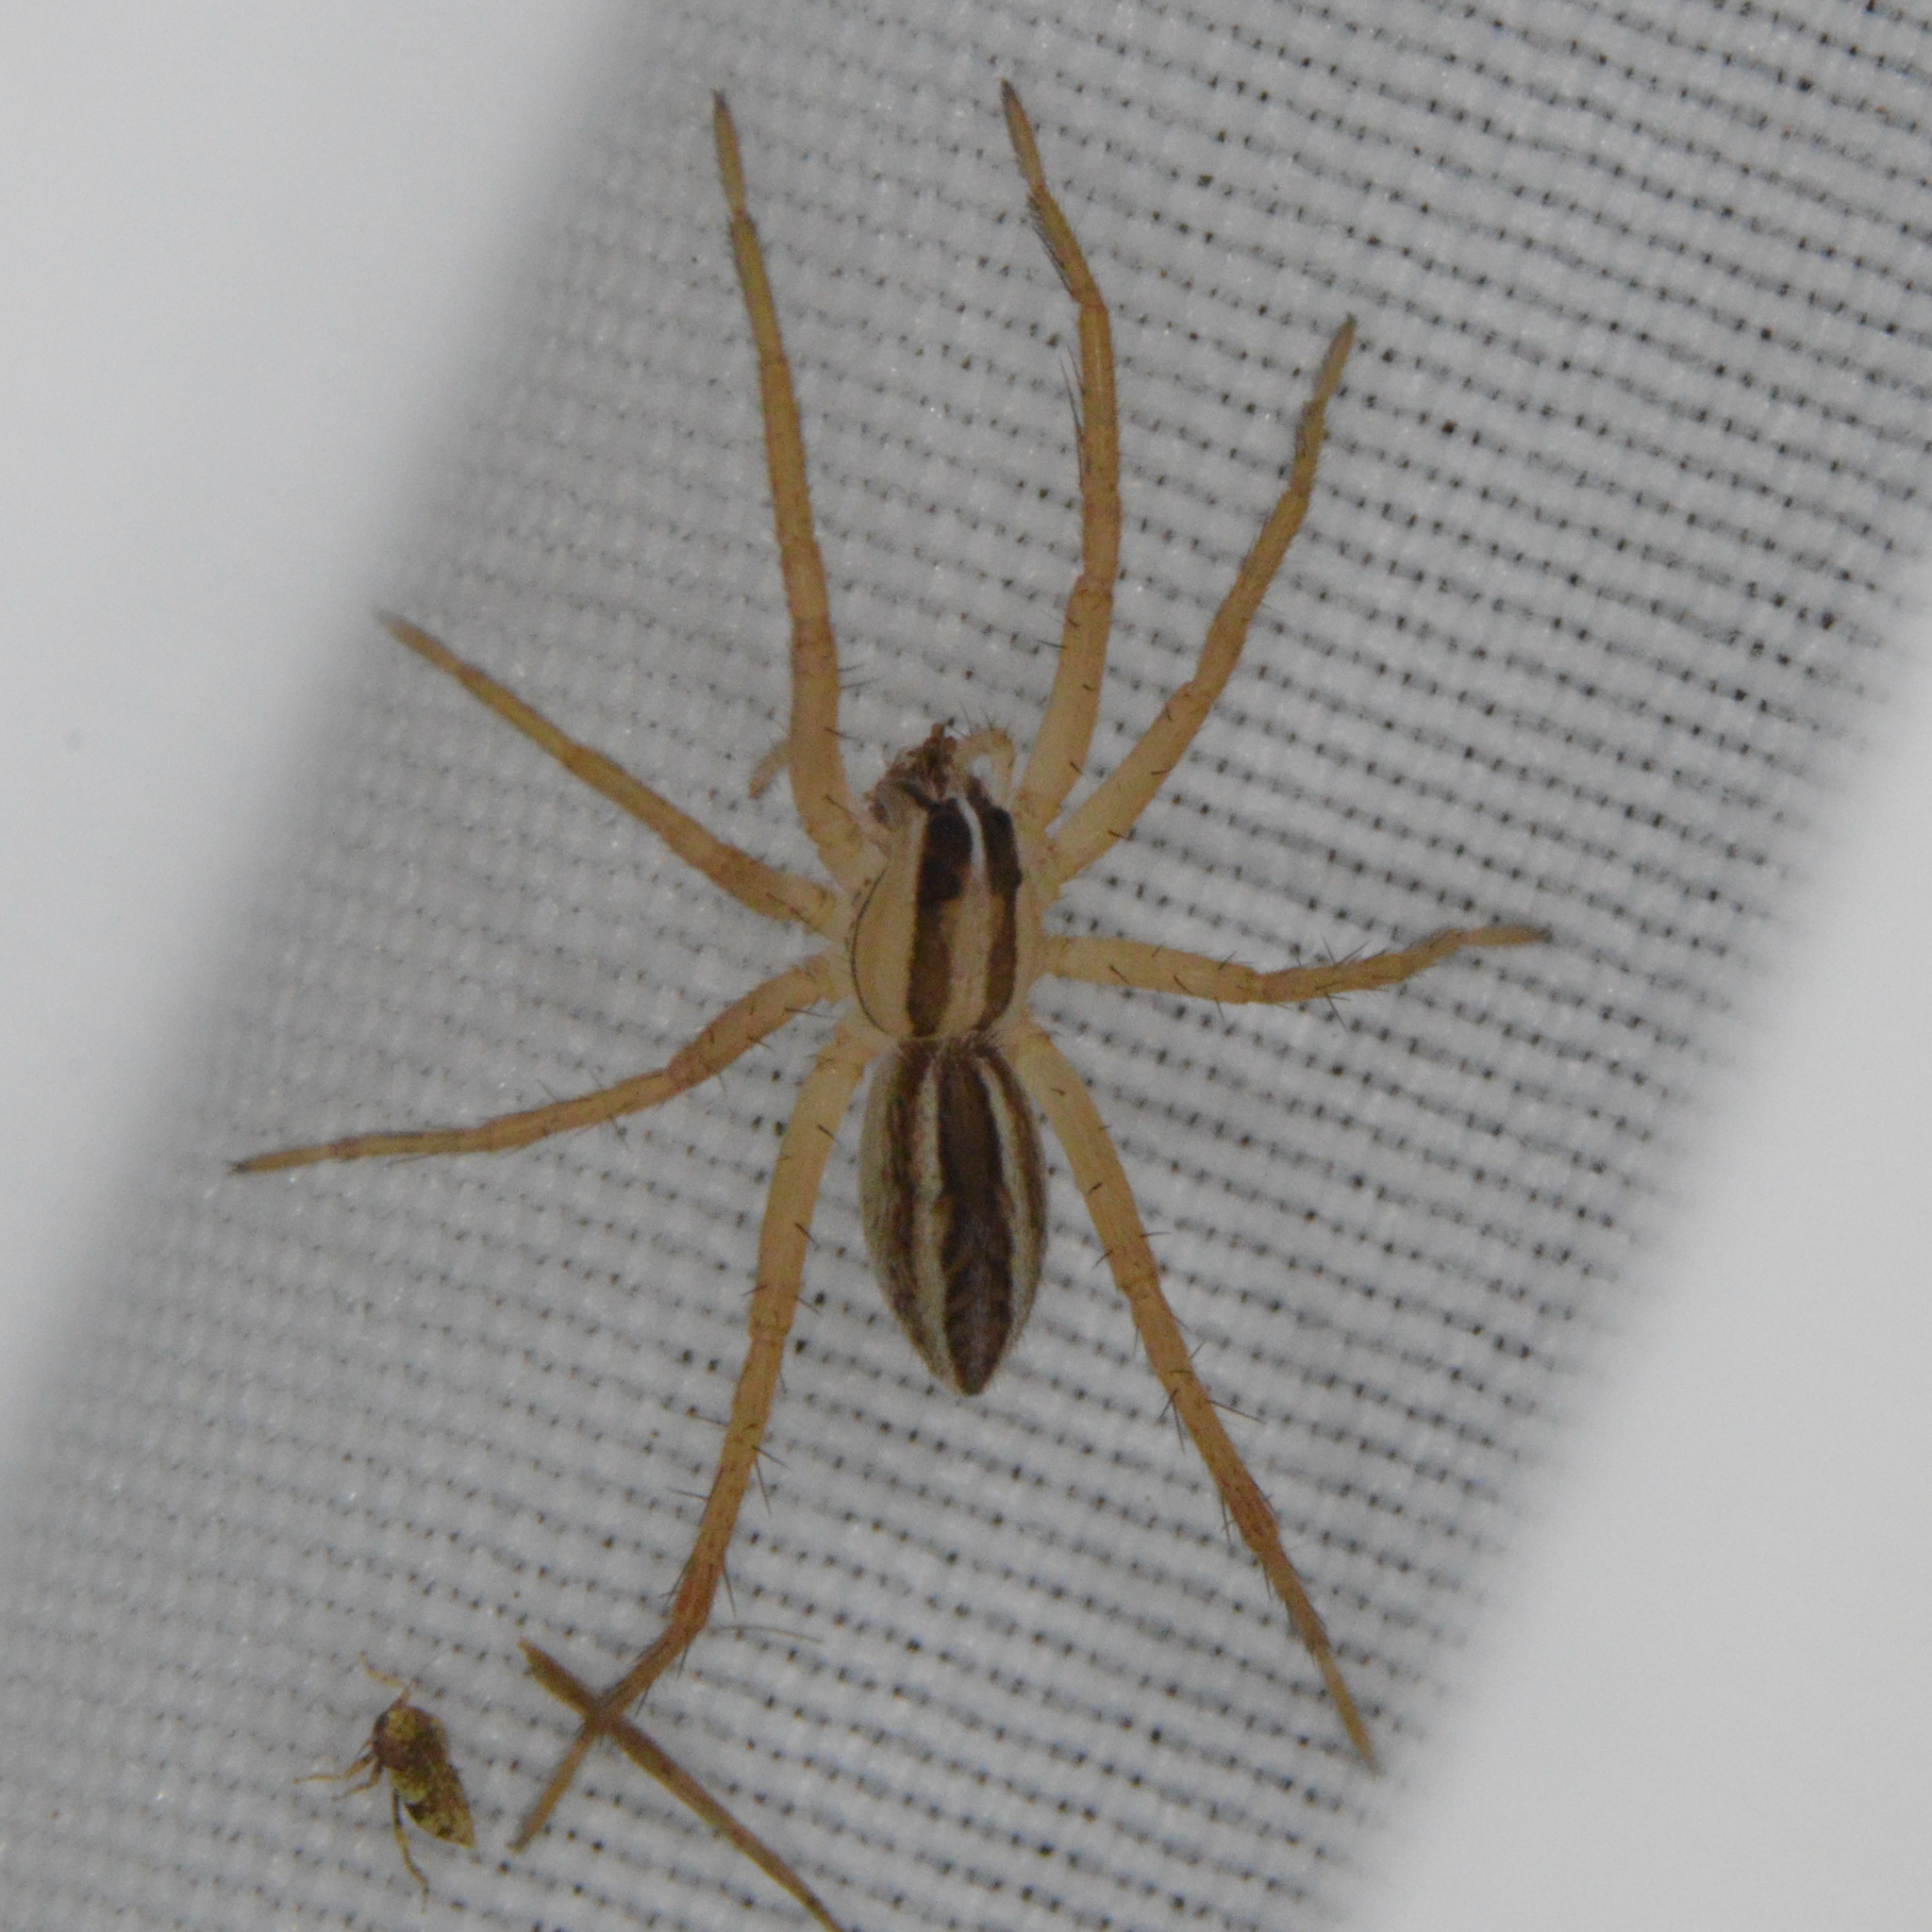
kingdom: Animalia
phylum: Arthropoda
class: Arachnida
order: Araneae
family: Lycosidae
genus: Rabidosa
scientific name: Rabidosa rabida
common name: Rabid wolf spider
